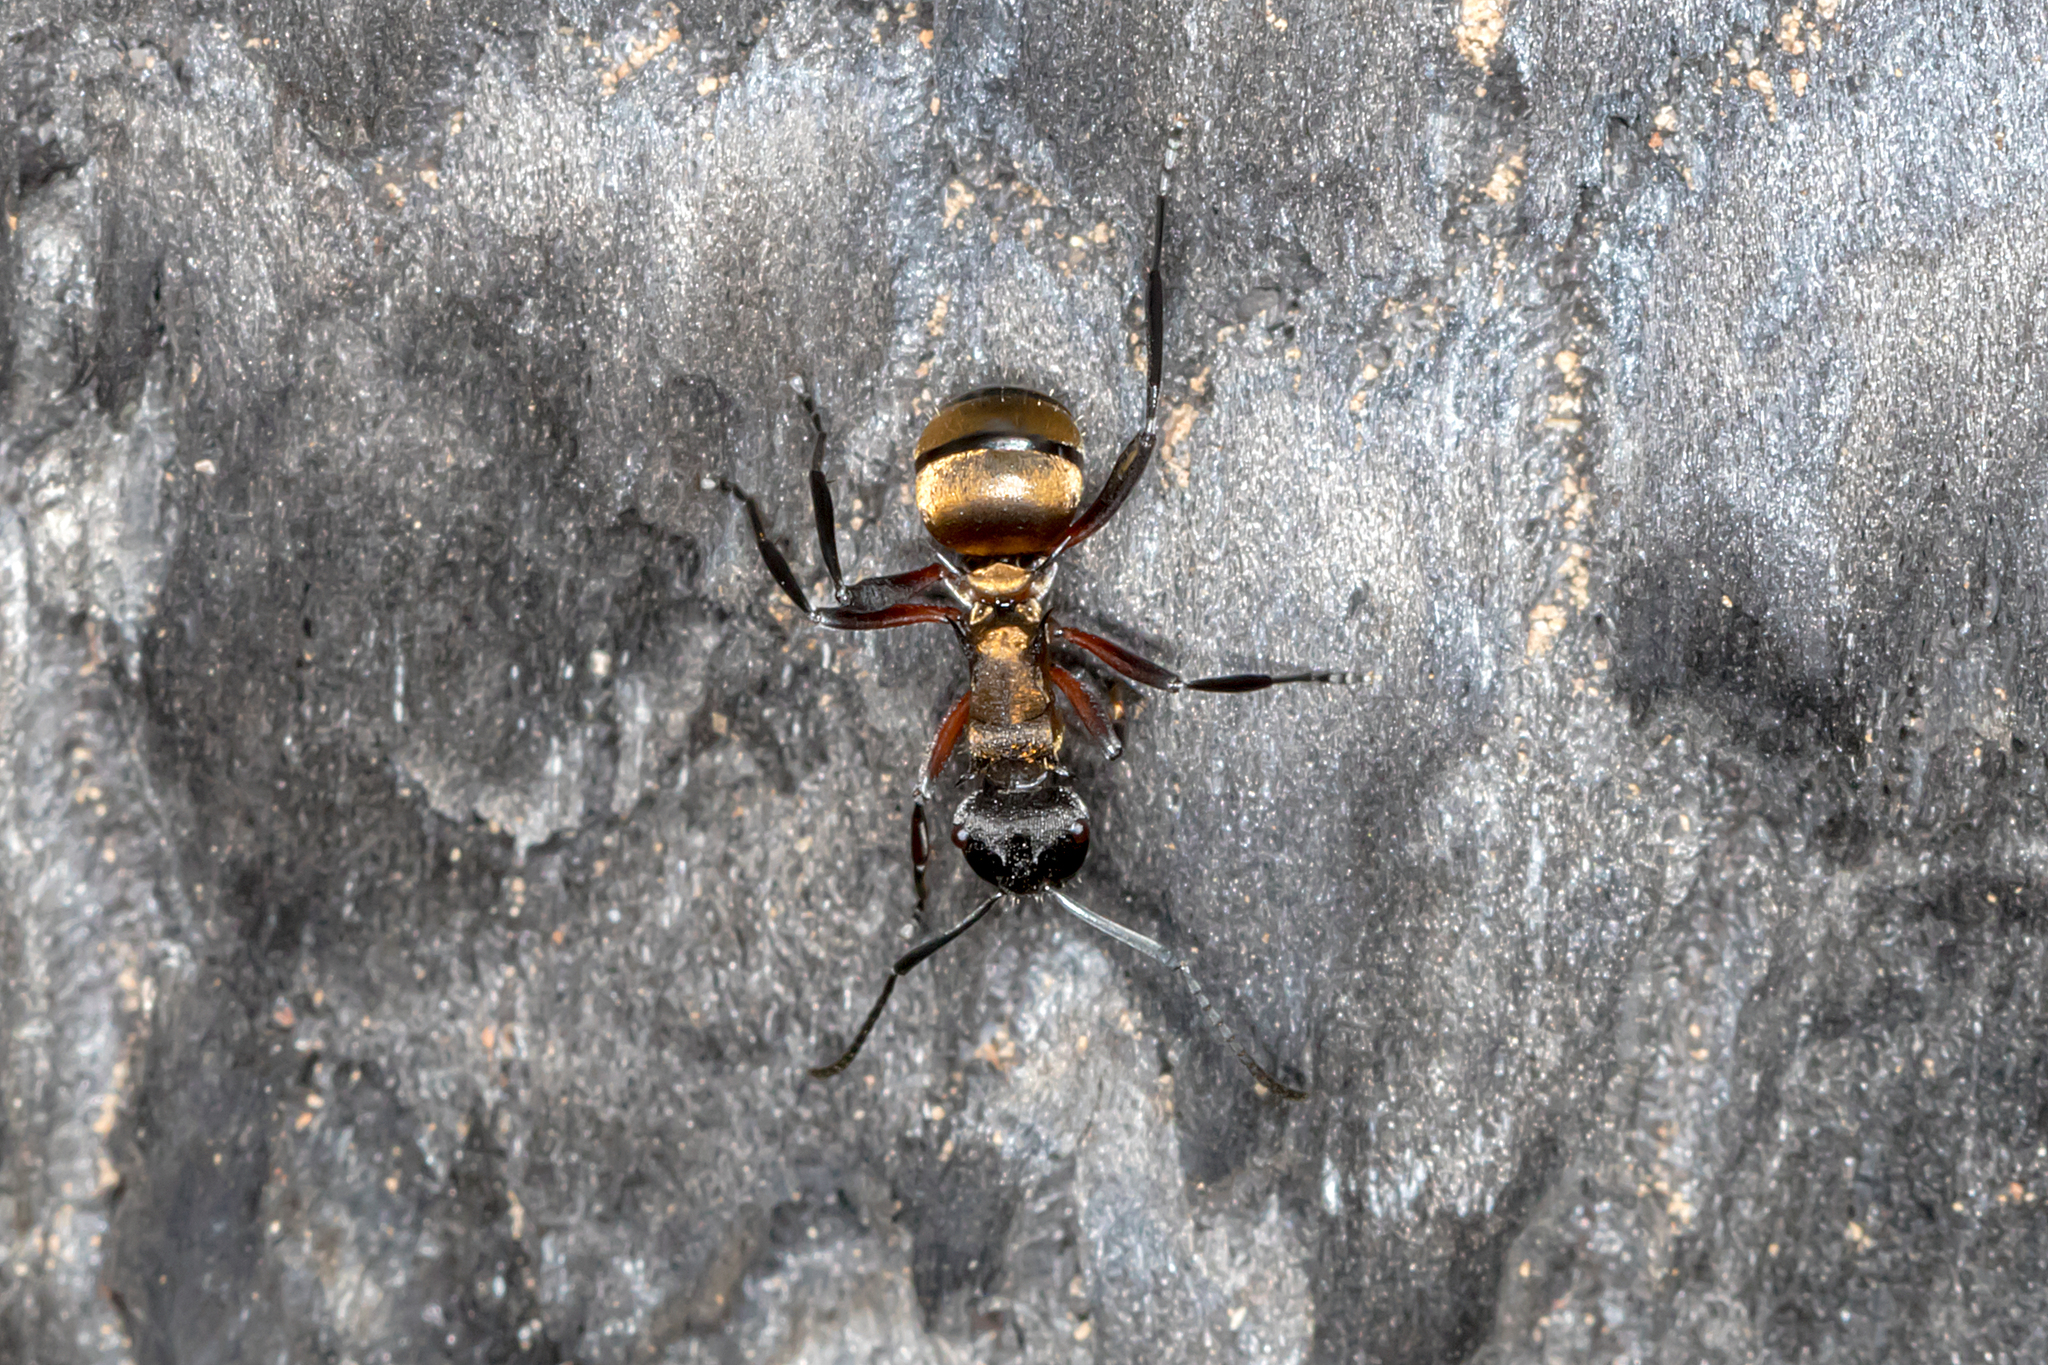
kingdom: Animalia
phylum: Arthropoda
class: Insecta
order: Hymenoptera
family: Formicidae
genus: Polyrhachis
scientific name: Polyrhachis rufifemur
